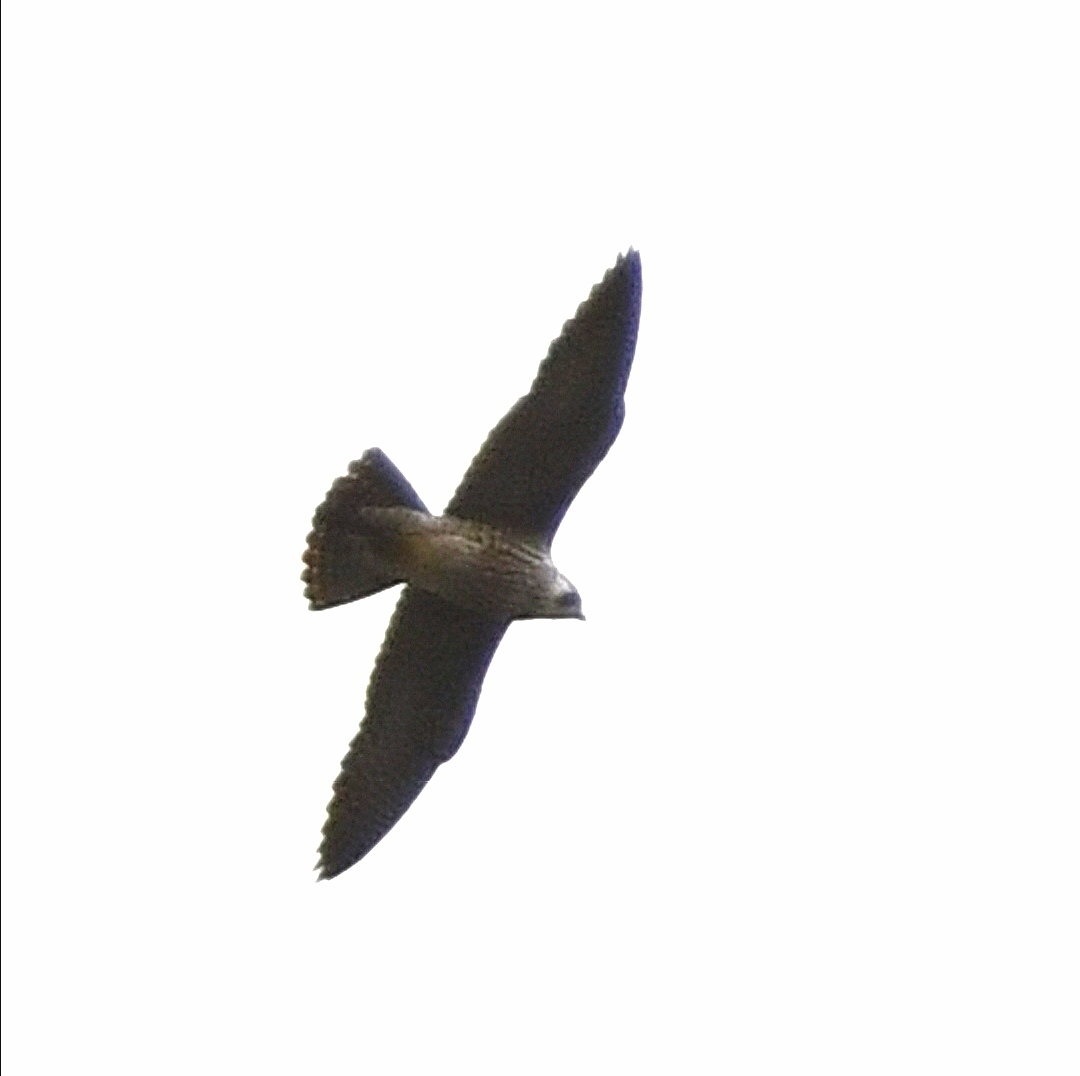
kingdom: Animalia
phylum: Chordata
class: Aves
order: Falconiformes
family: Falconidae
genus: Falco
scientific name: Falco peregrinus
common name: Peregrine falcon
